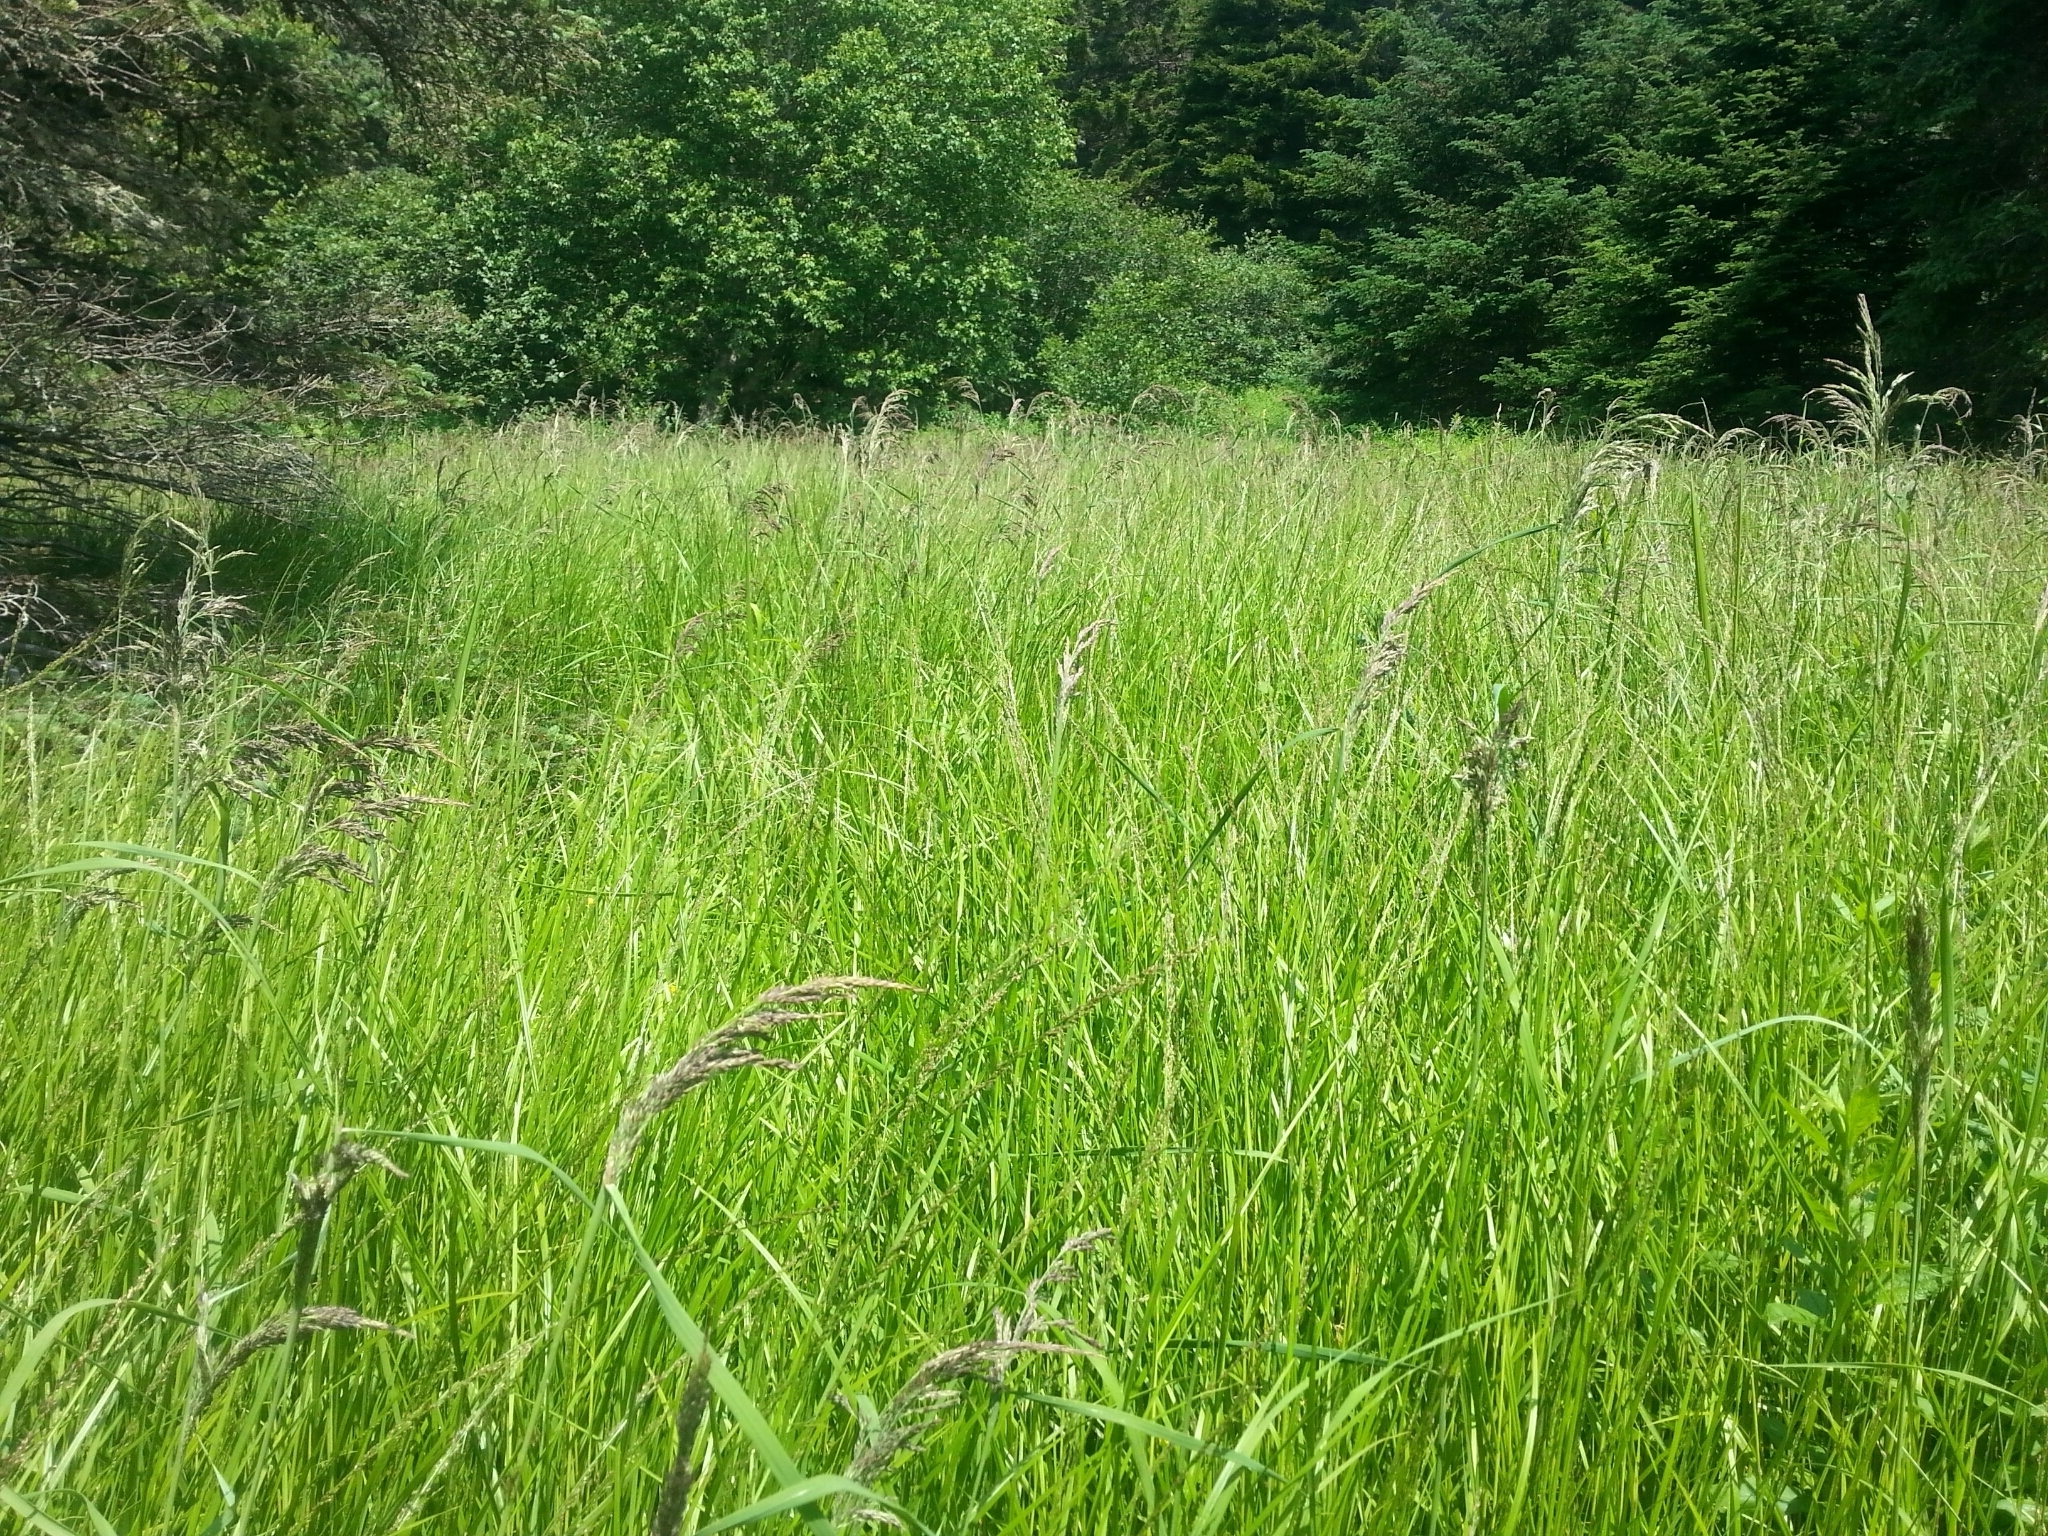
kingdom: Plantae
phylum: Tracheophyta
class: Liliopsida
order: Poales
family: Poaceae
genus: Calamagrostis
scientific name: Calamagrostis canadensis
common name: Canada bluejoint
